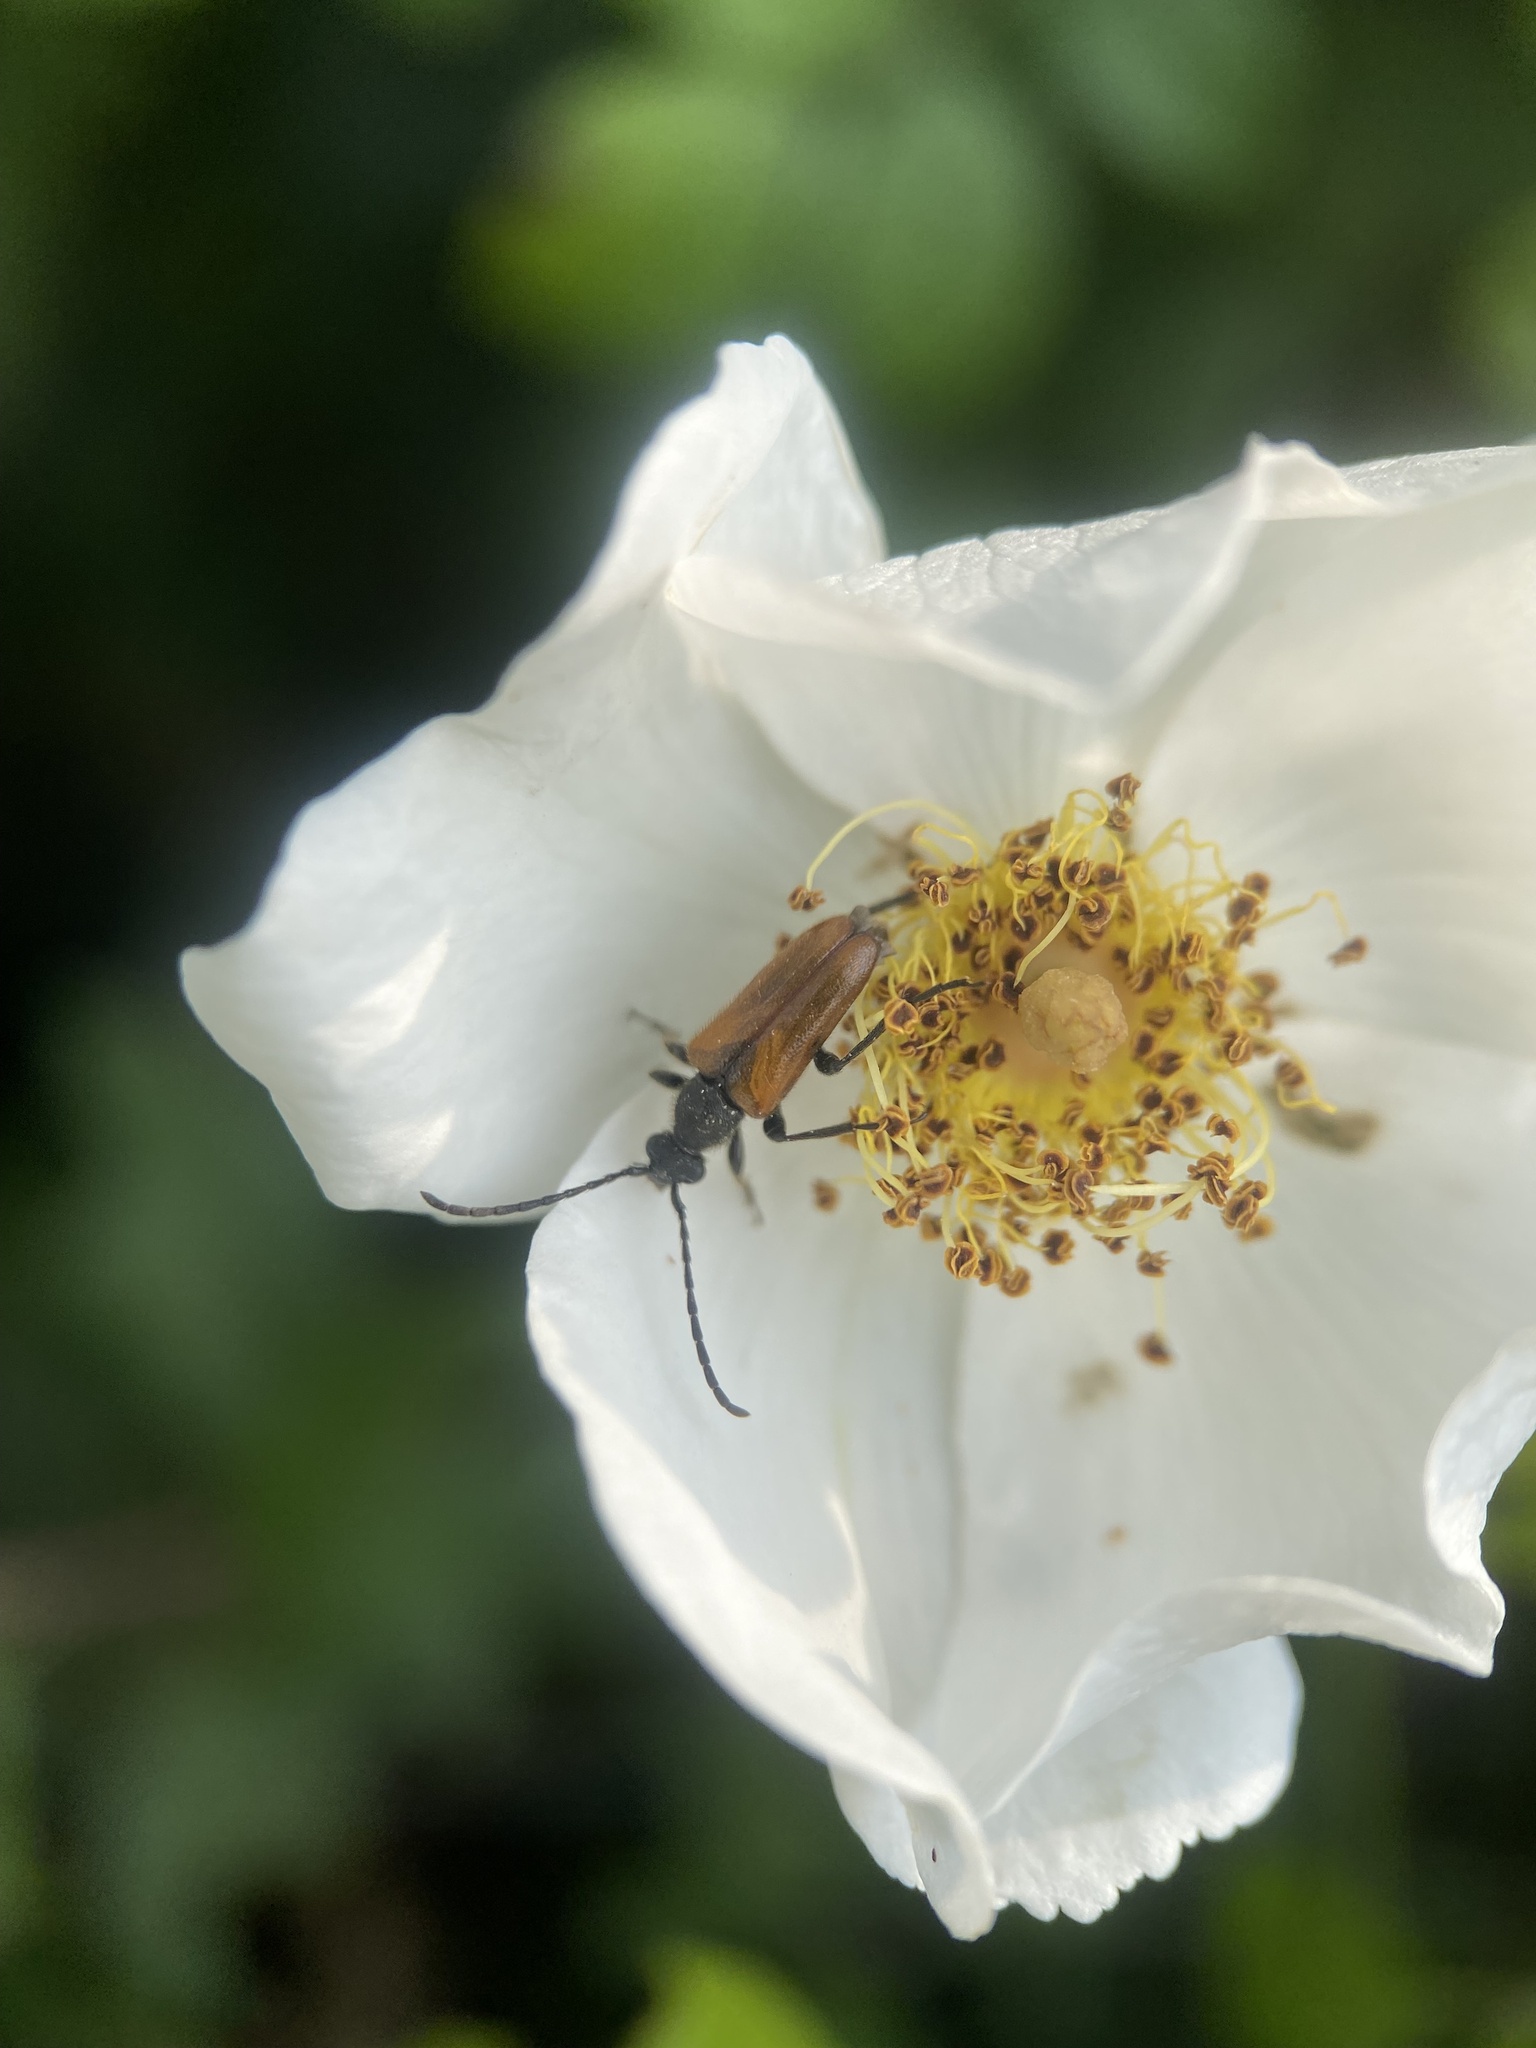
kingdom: Animalia
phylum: Arthropoda
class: Insecta
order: Coleoptera
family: Cerambycidae
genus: Pseudovadonia
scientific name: Pseudovadonia livida
